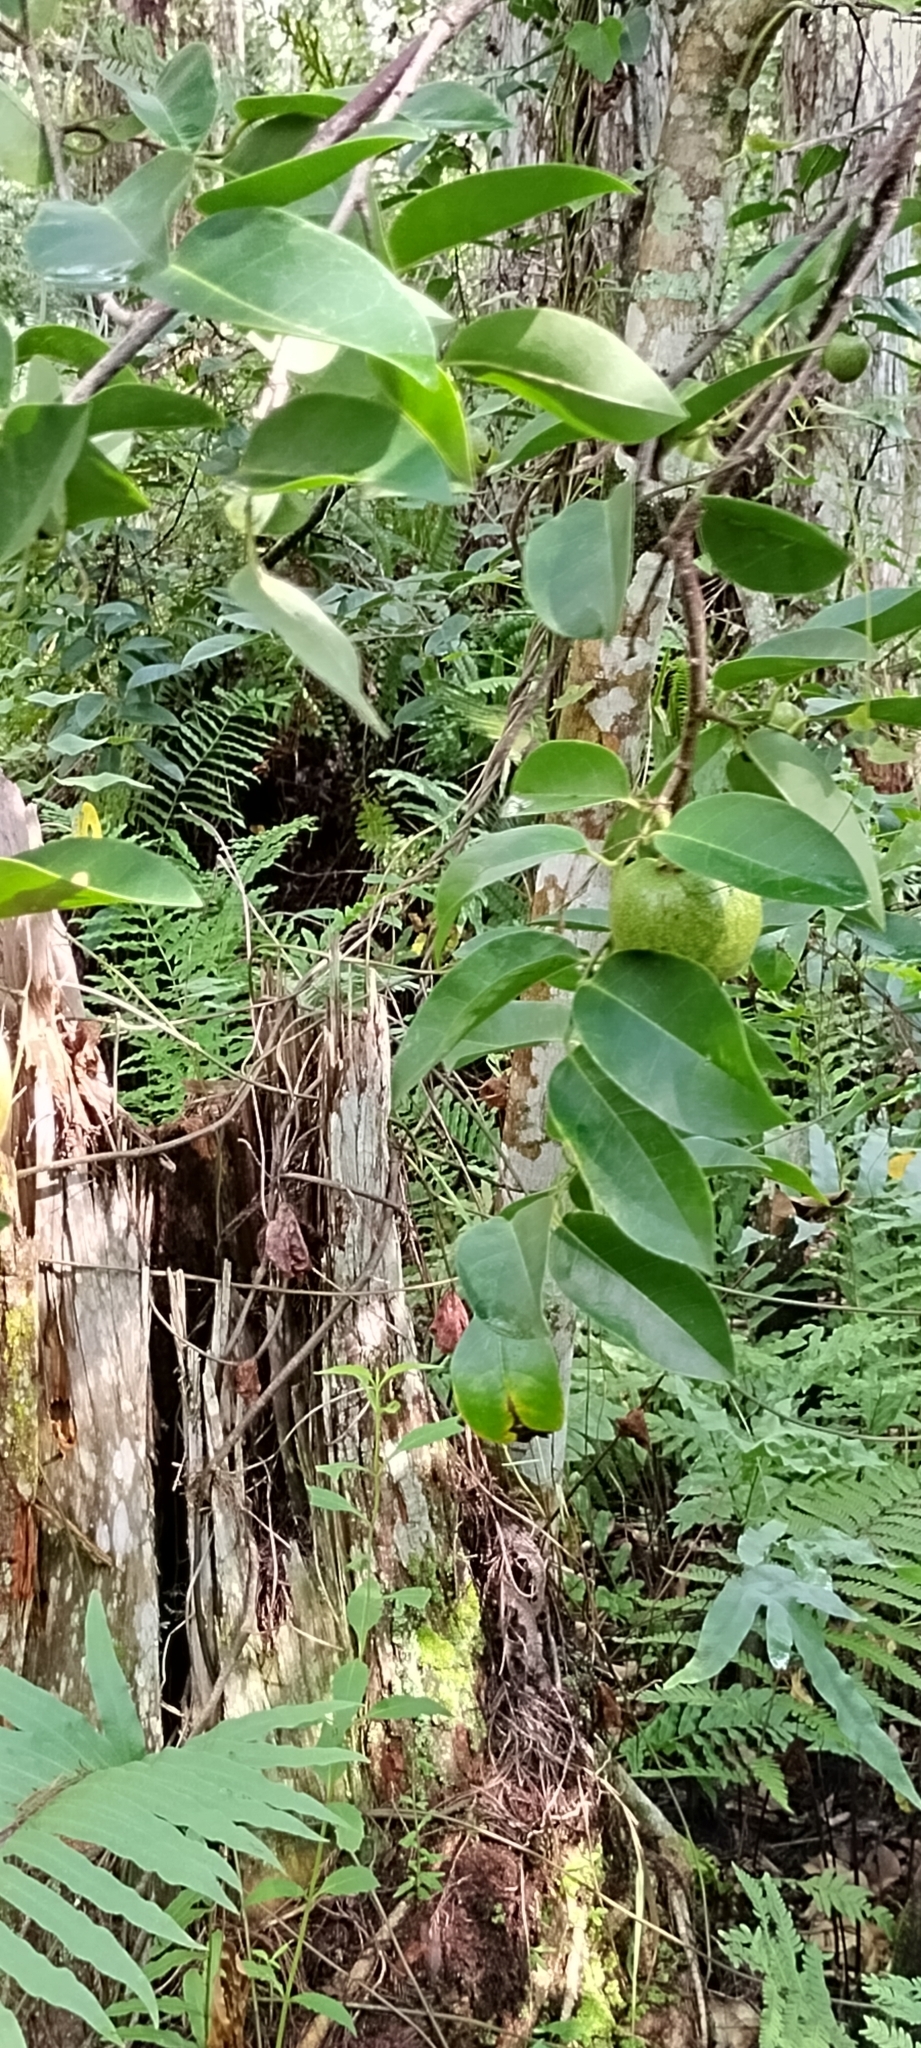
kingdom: Plantae
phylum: Tracheophyta
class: Magnoliopsida
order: Magnoliales
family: Annonaceae
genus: Annona
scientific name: Annona glabra
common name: Monkey apple
